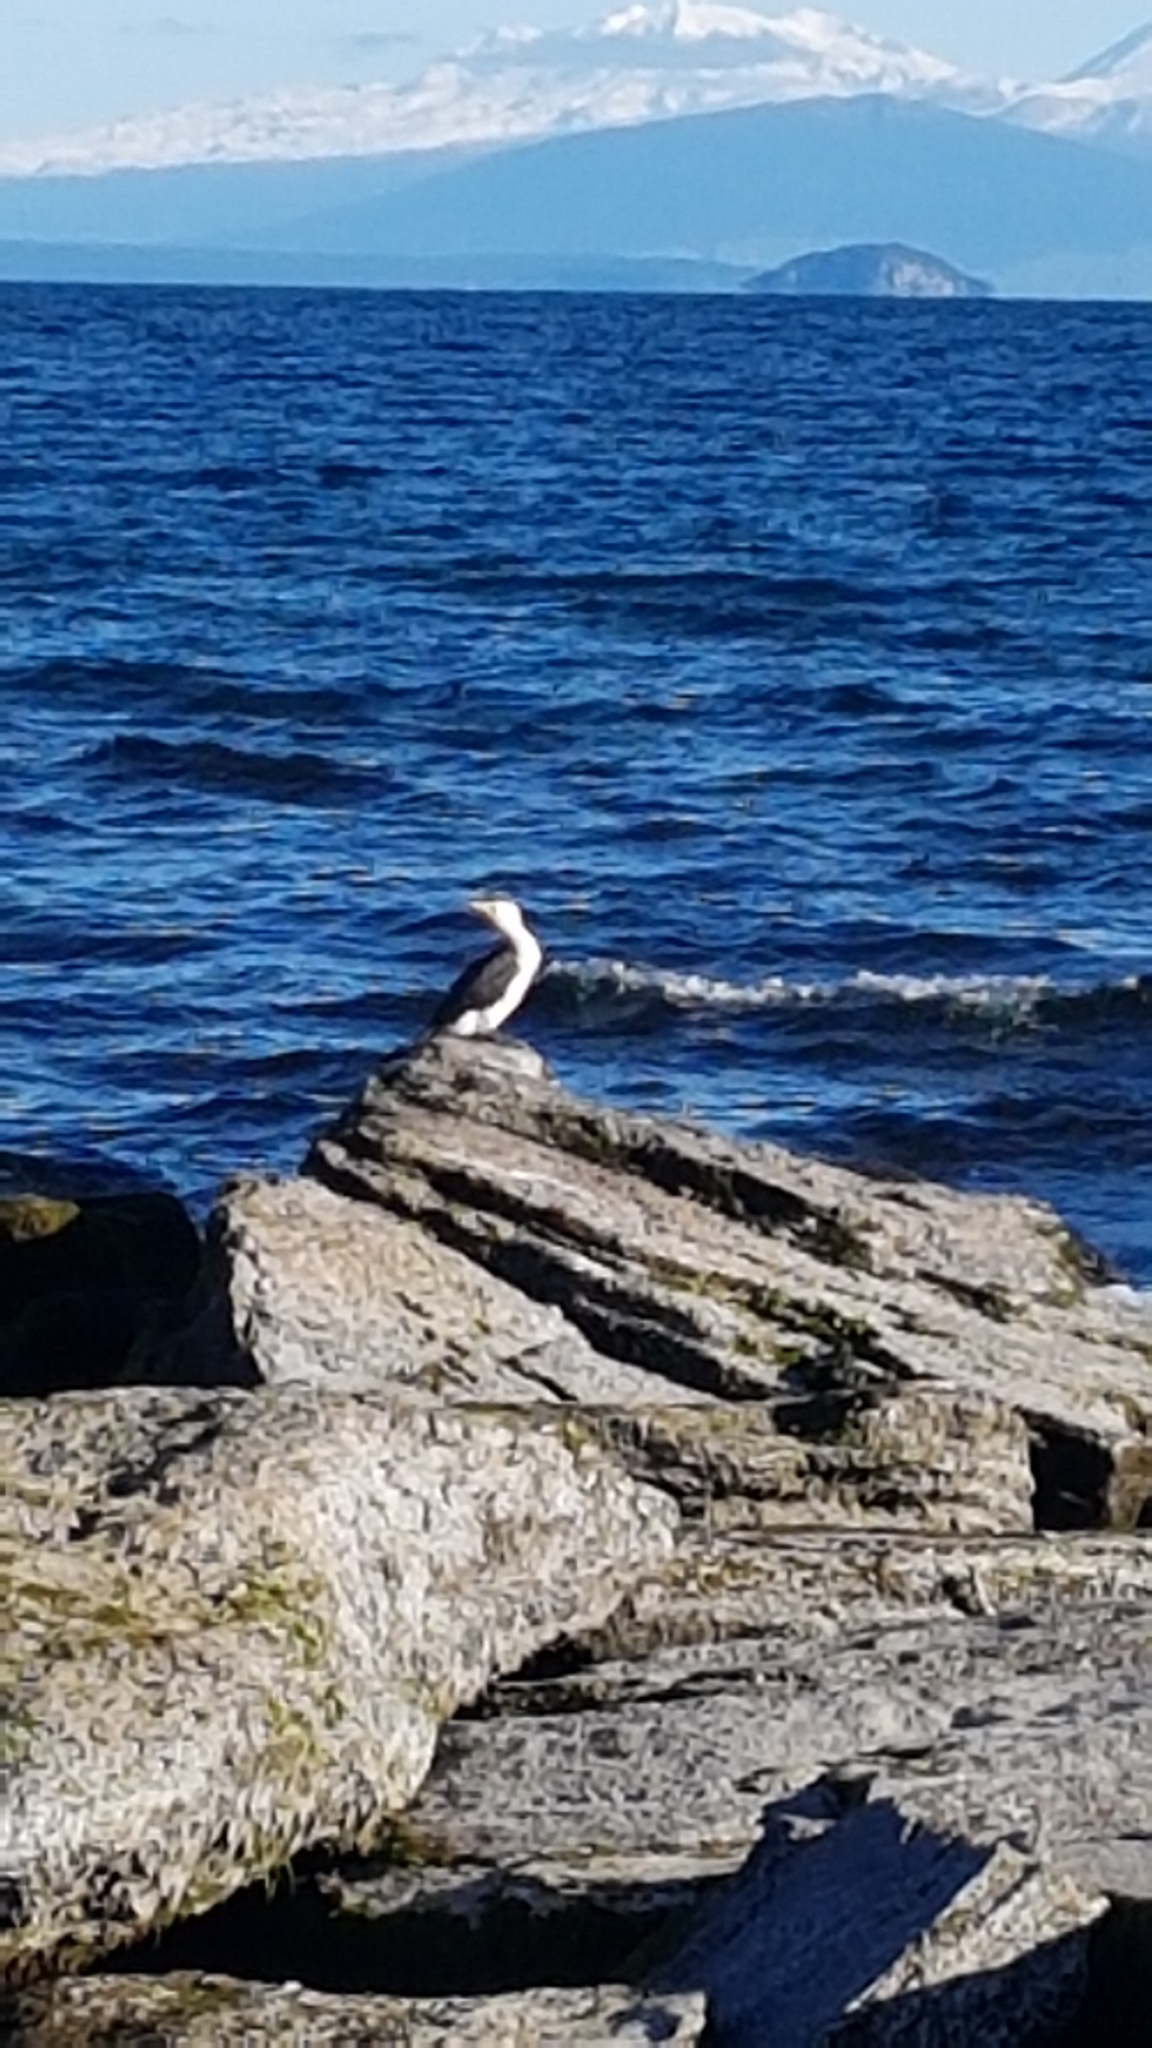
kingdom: Animalia
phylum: Chordata
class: Aves
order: Suliformes
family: Phalacrocoracidae
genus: Microcarbo
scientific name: Microcarbo melanoleucos
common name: Little pied cormorant
